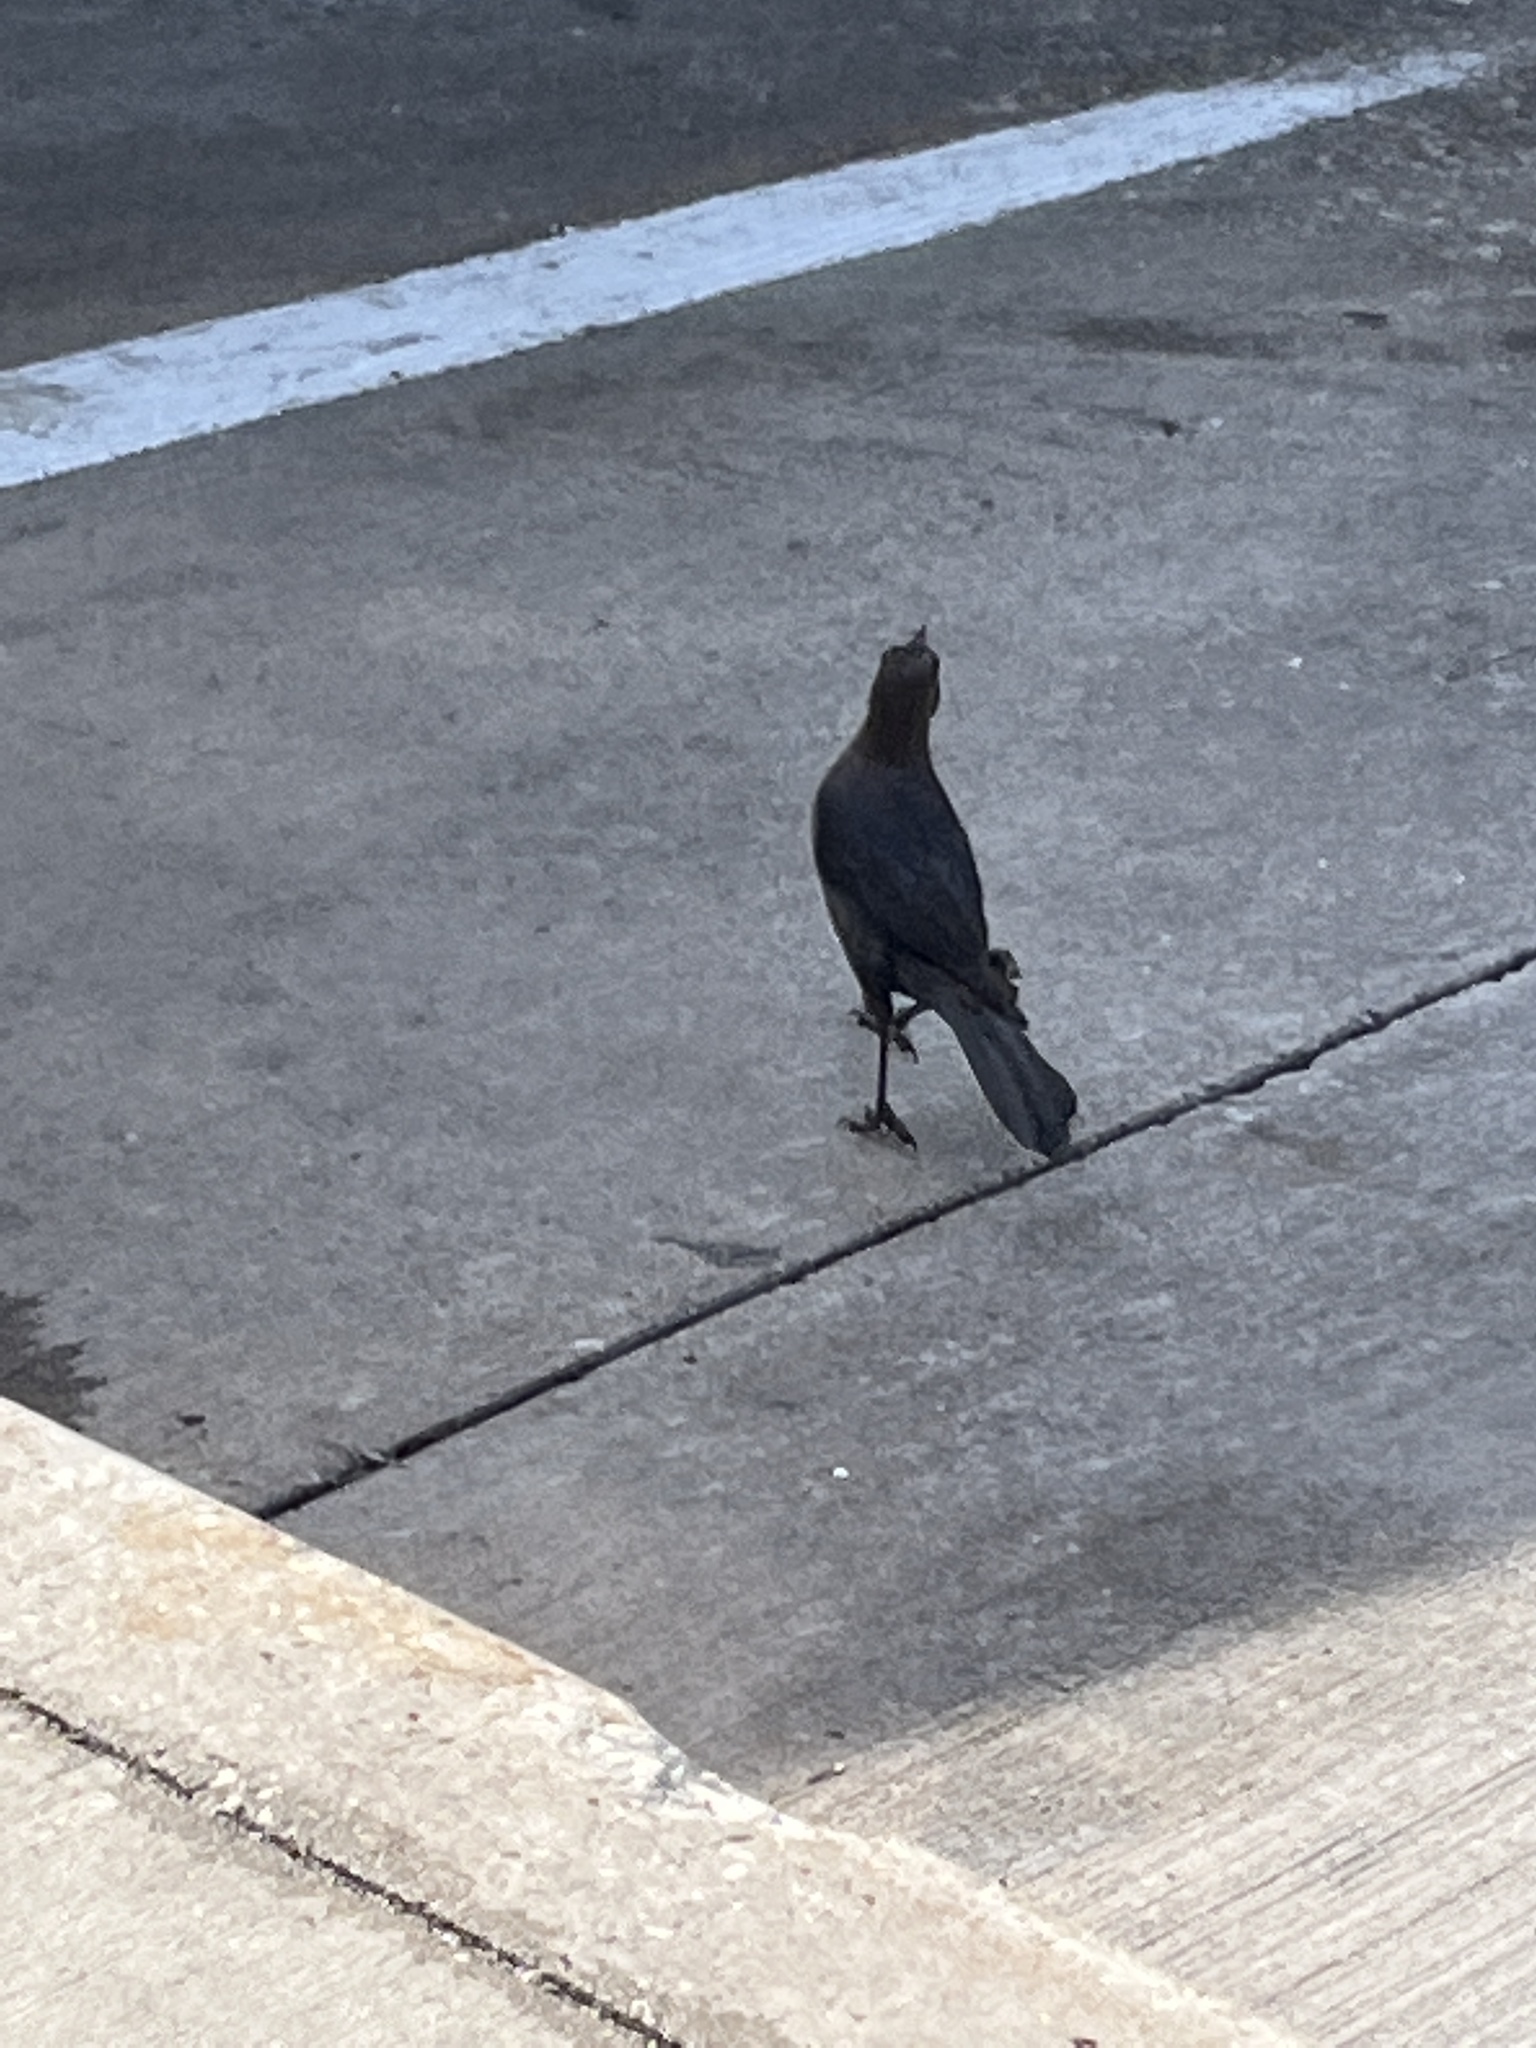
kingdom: Animalia
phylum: Chordata
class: Aves
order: Passeriformes
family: Icteridae
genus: Quiscalus
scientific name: Quiscalus mexicanus
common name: Great-tailed grackle
